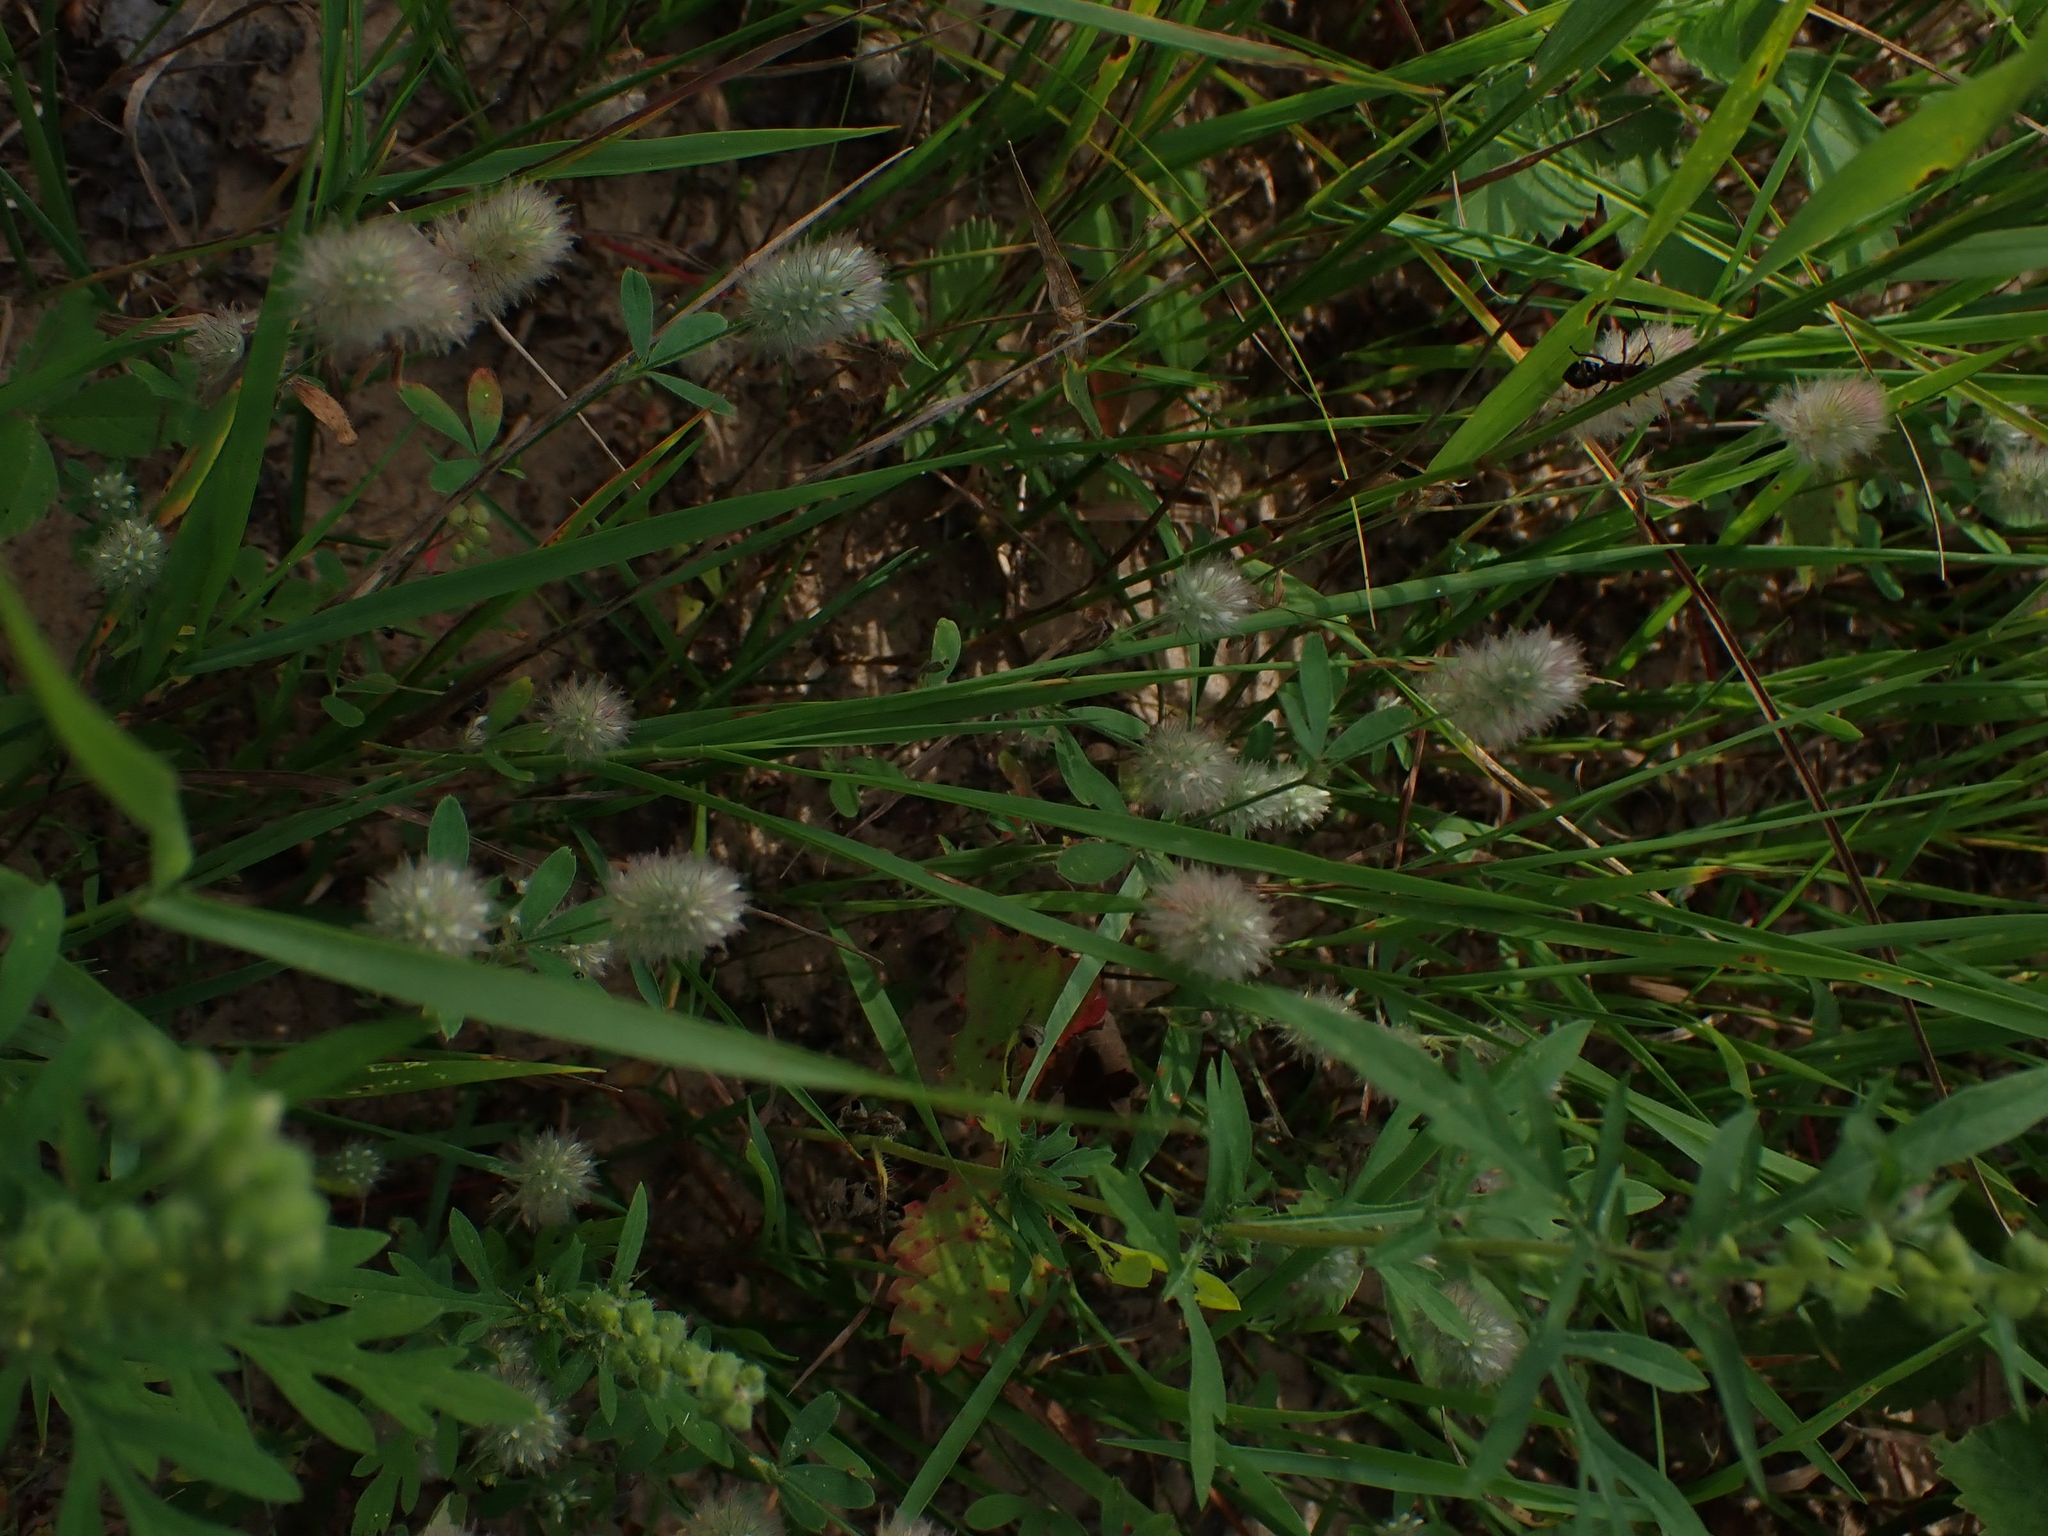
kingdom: Plantae
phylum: Tracheophyta
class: Magnoliopsida
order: Fabales
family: Fabaceae
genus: Trifolium
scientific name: Trifolium arvense
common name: Hare's-foot clover
